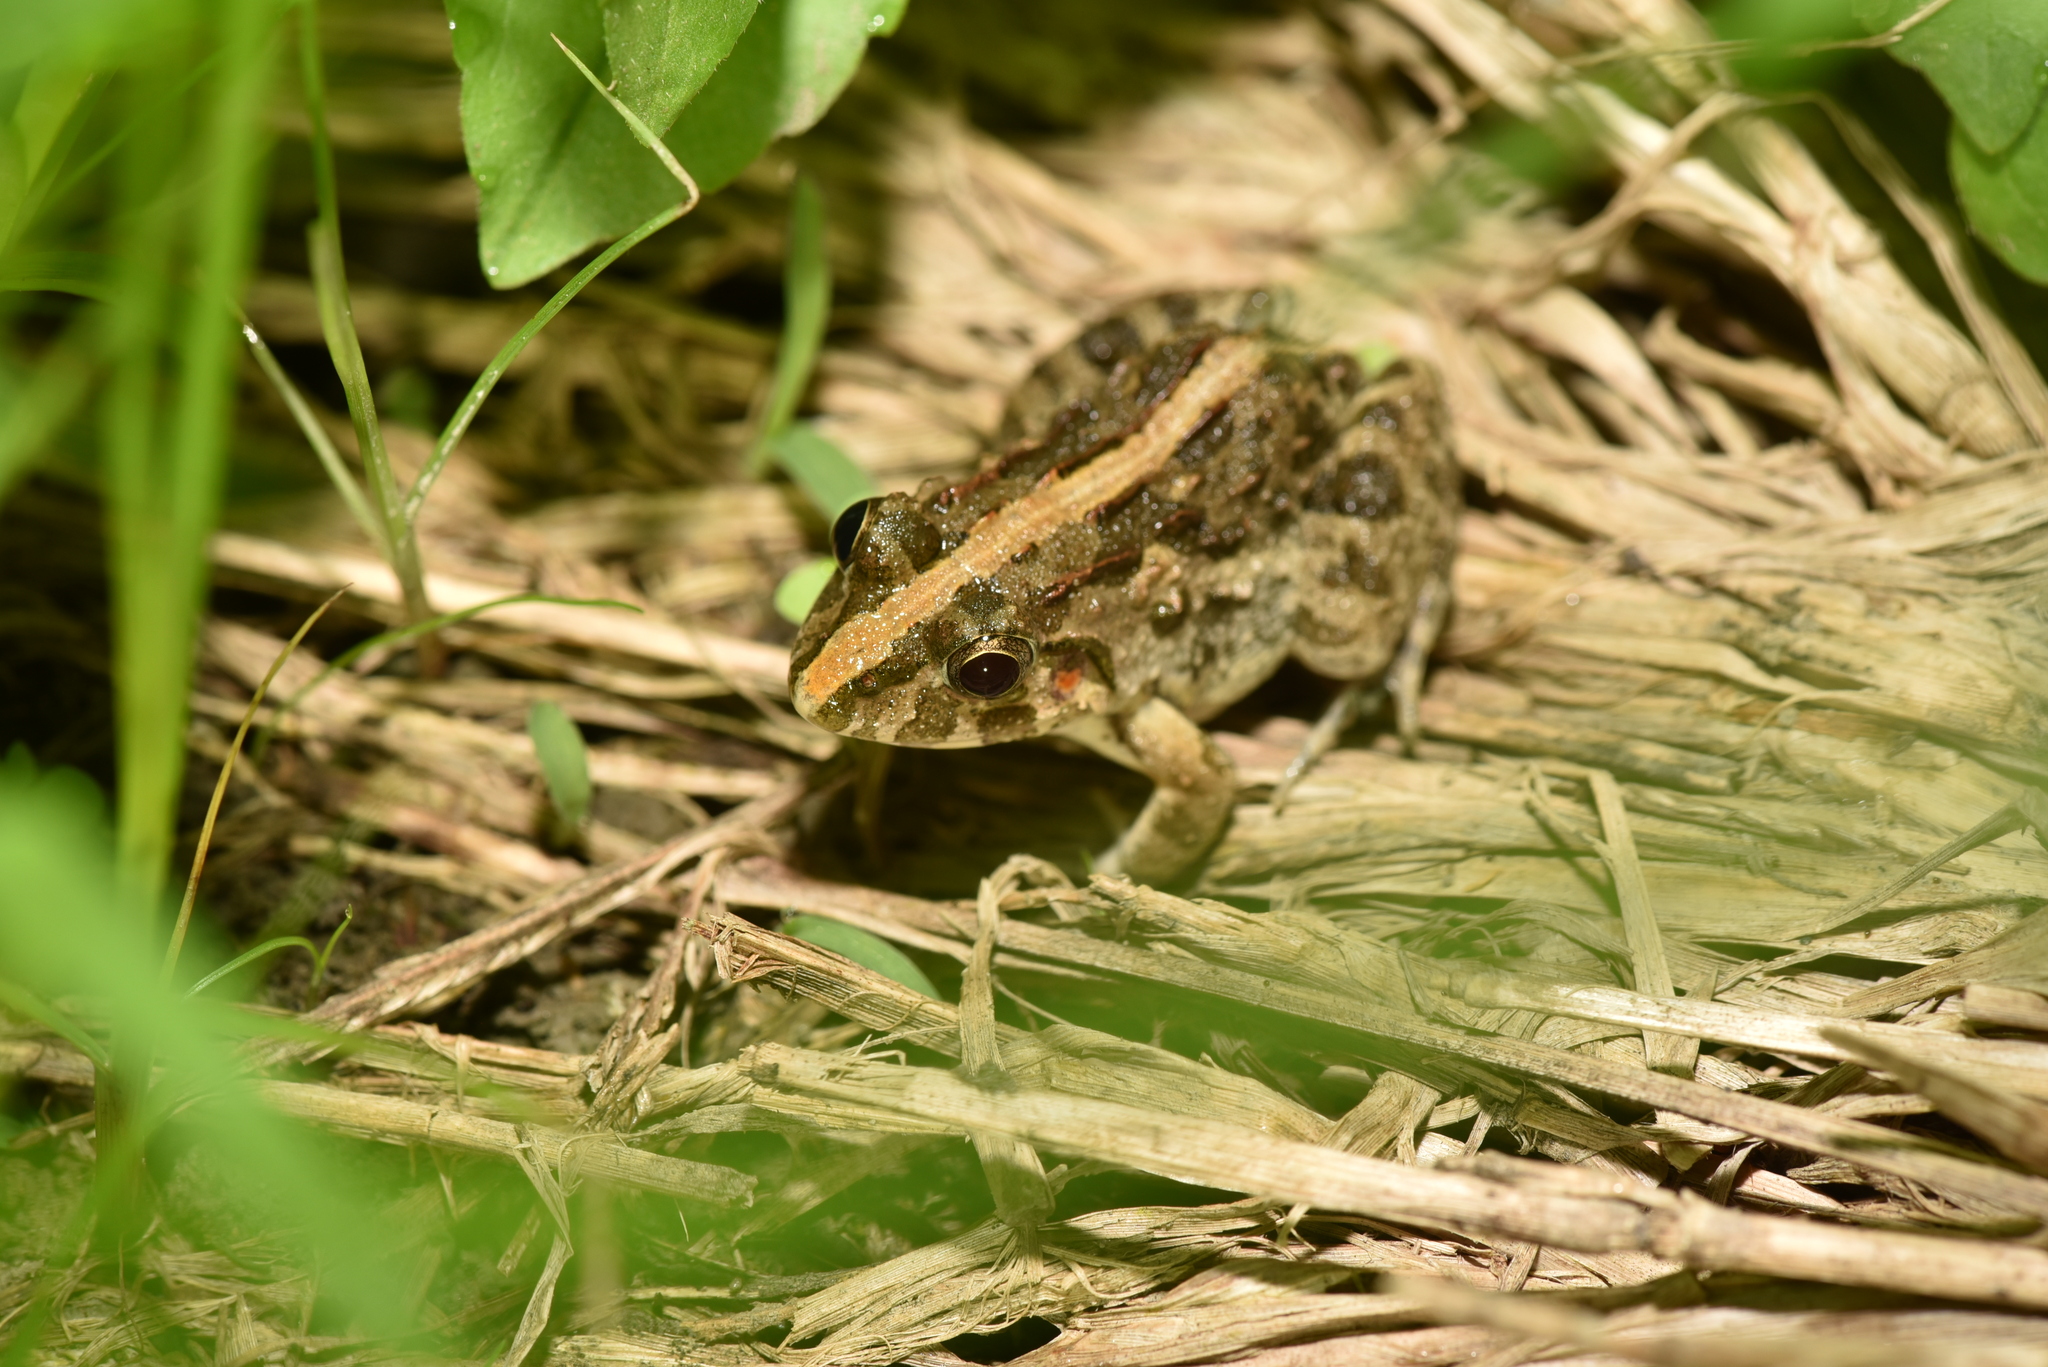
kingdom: Animalia
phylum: Chordata
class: Amphibia
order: Anura
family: Dicroglossidae
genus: Fejervarya
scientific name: Fejervarya limnocharis
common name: Asian grass frog/common pond frog/field frog/grass frog/indian rice frog
